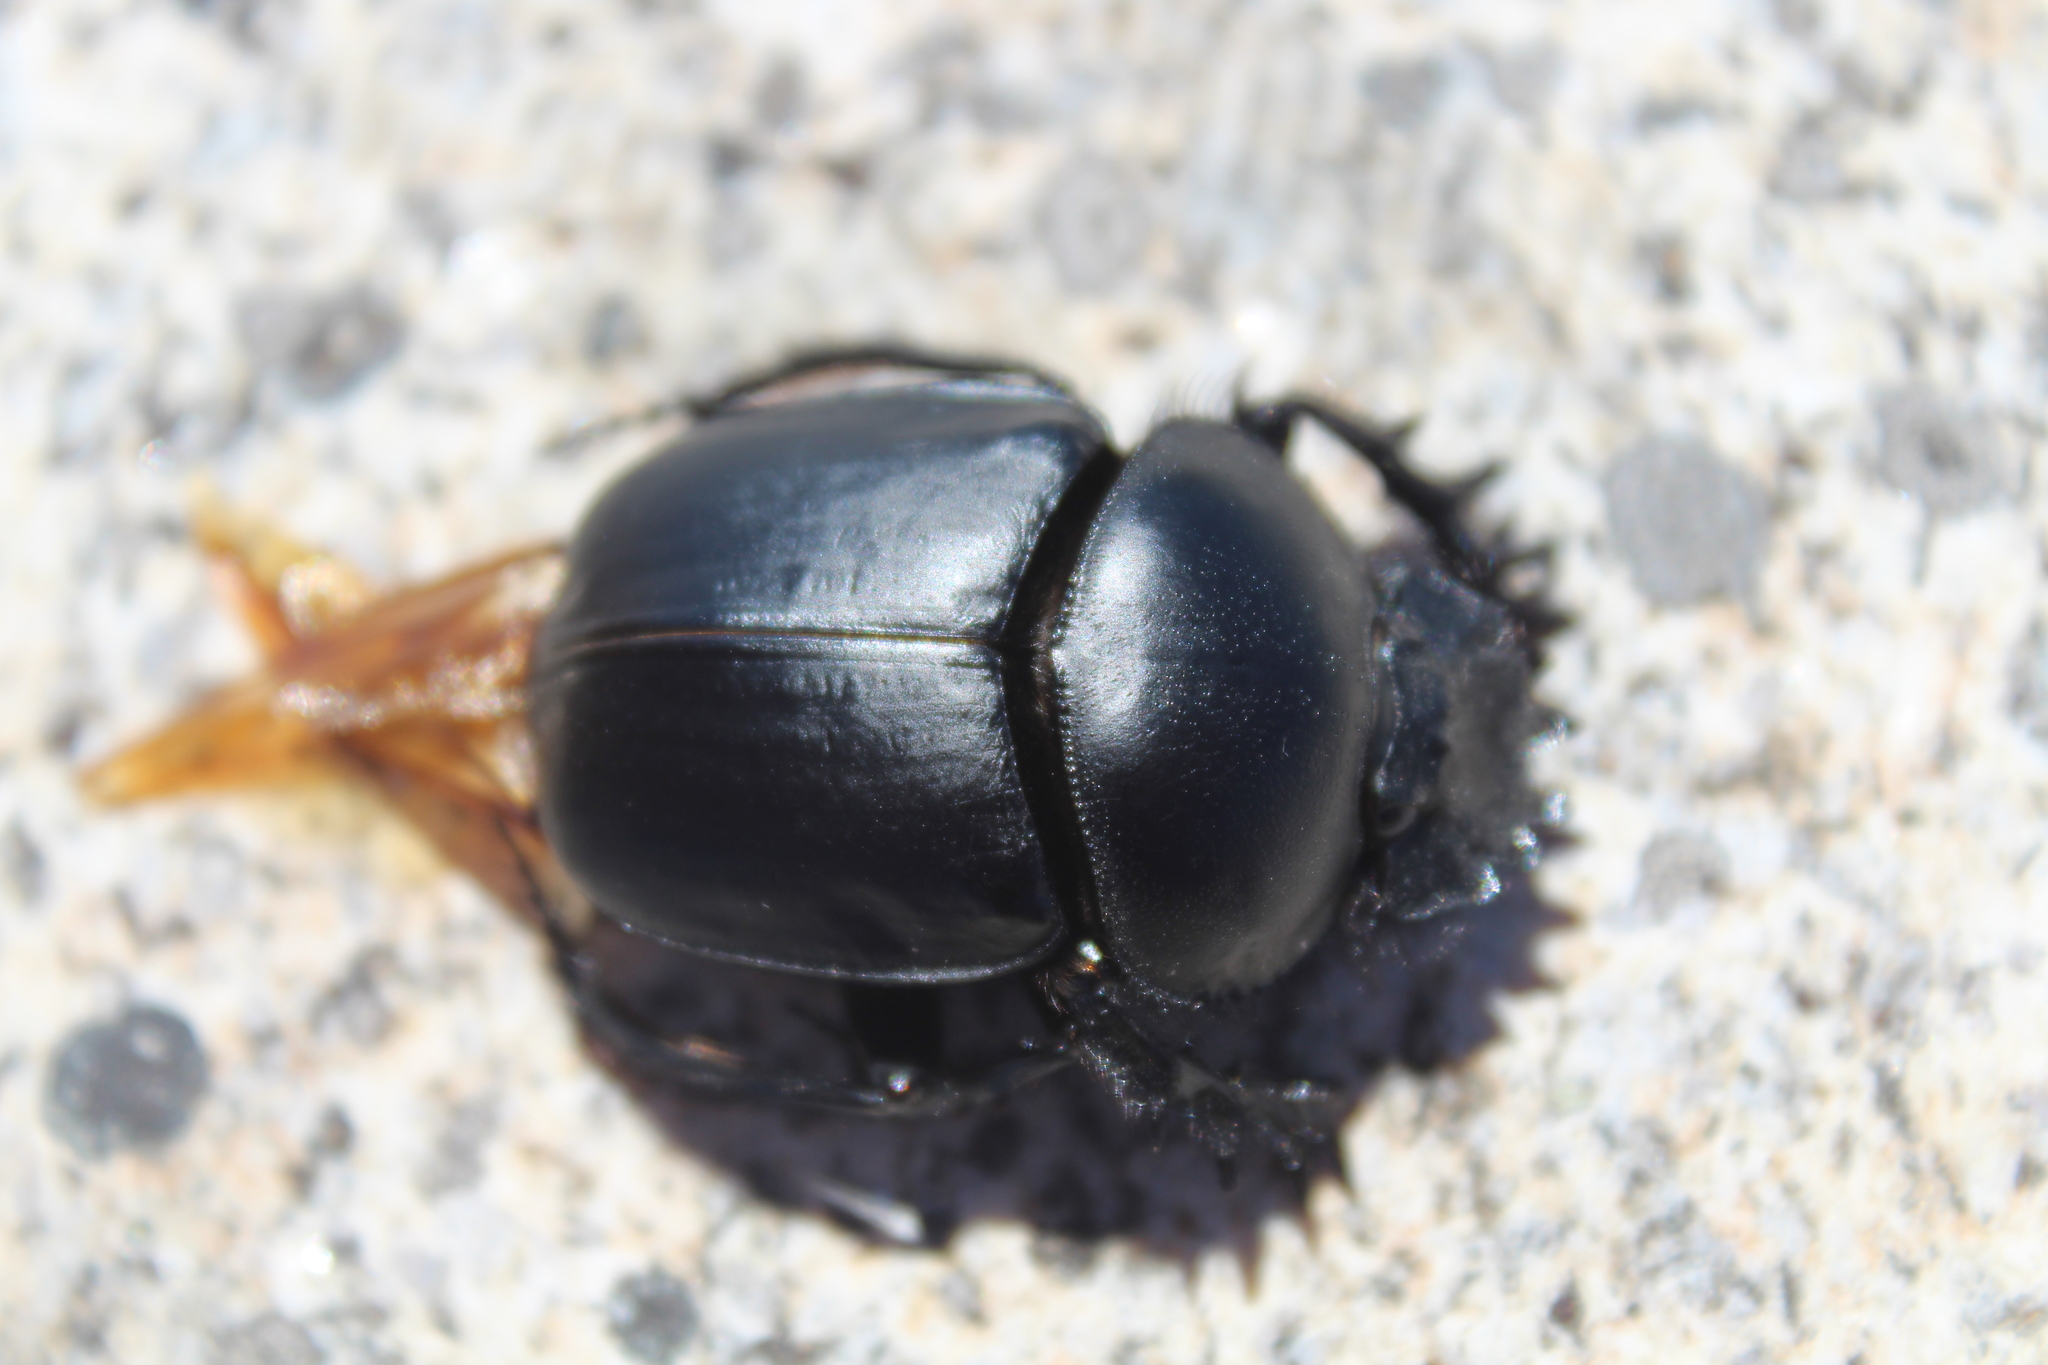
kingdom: Animalia
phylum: Arthropoda
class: Insecta
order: Coleoptera
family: Scarabaeidae
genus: Scarabaeus
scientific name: Scarabaeus sacer
